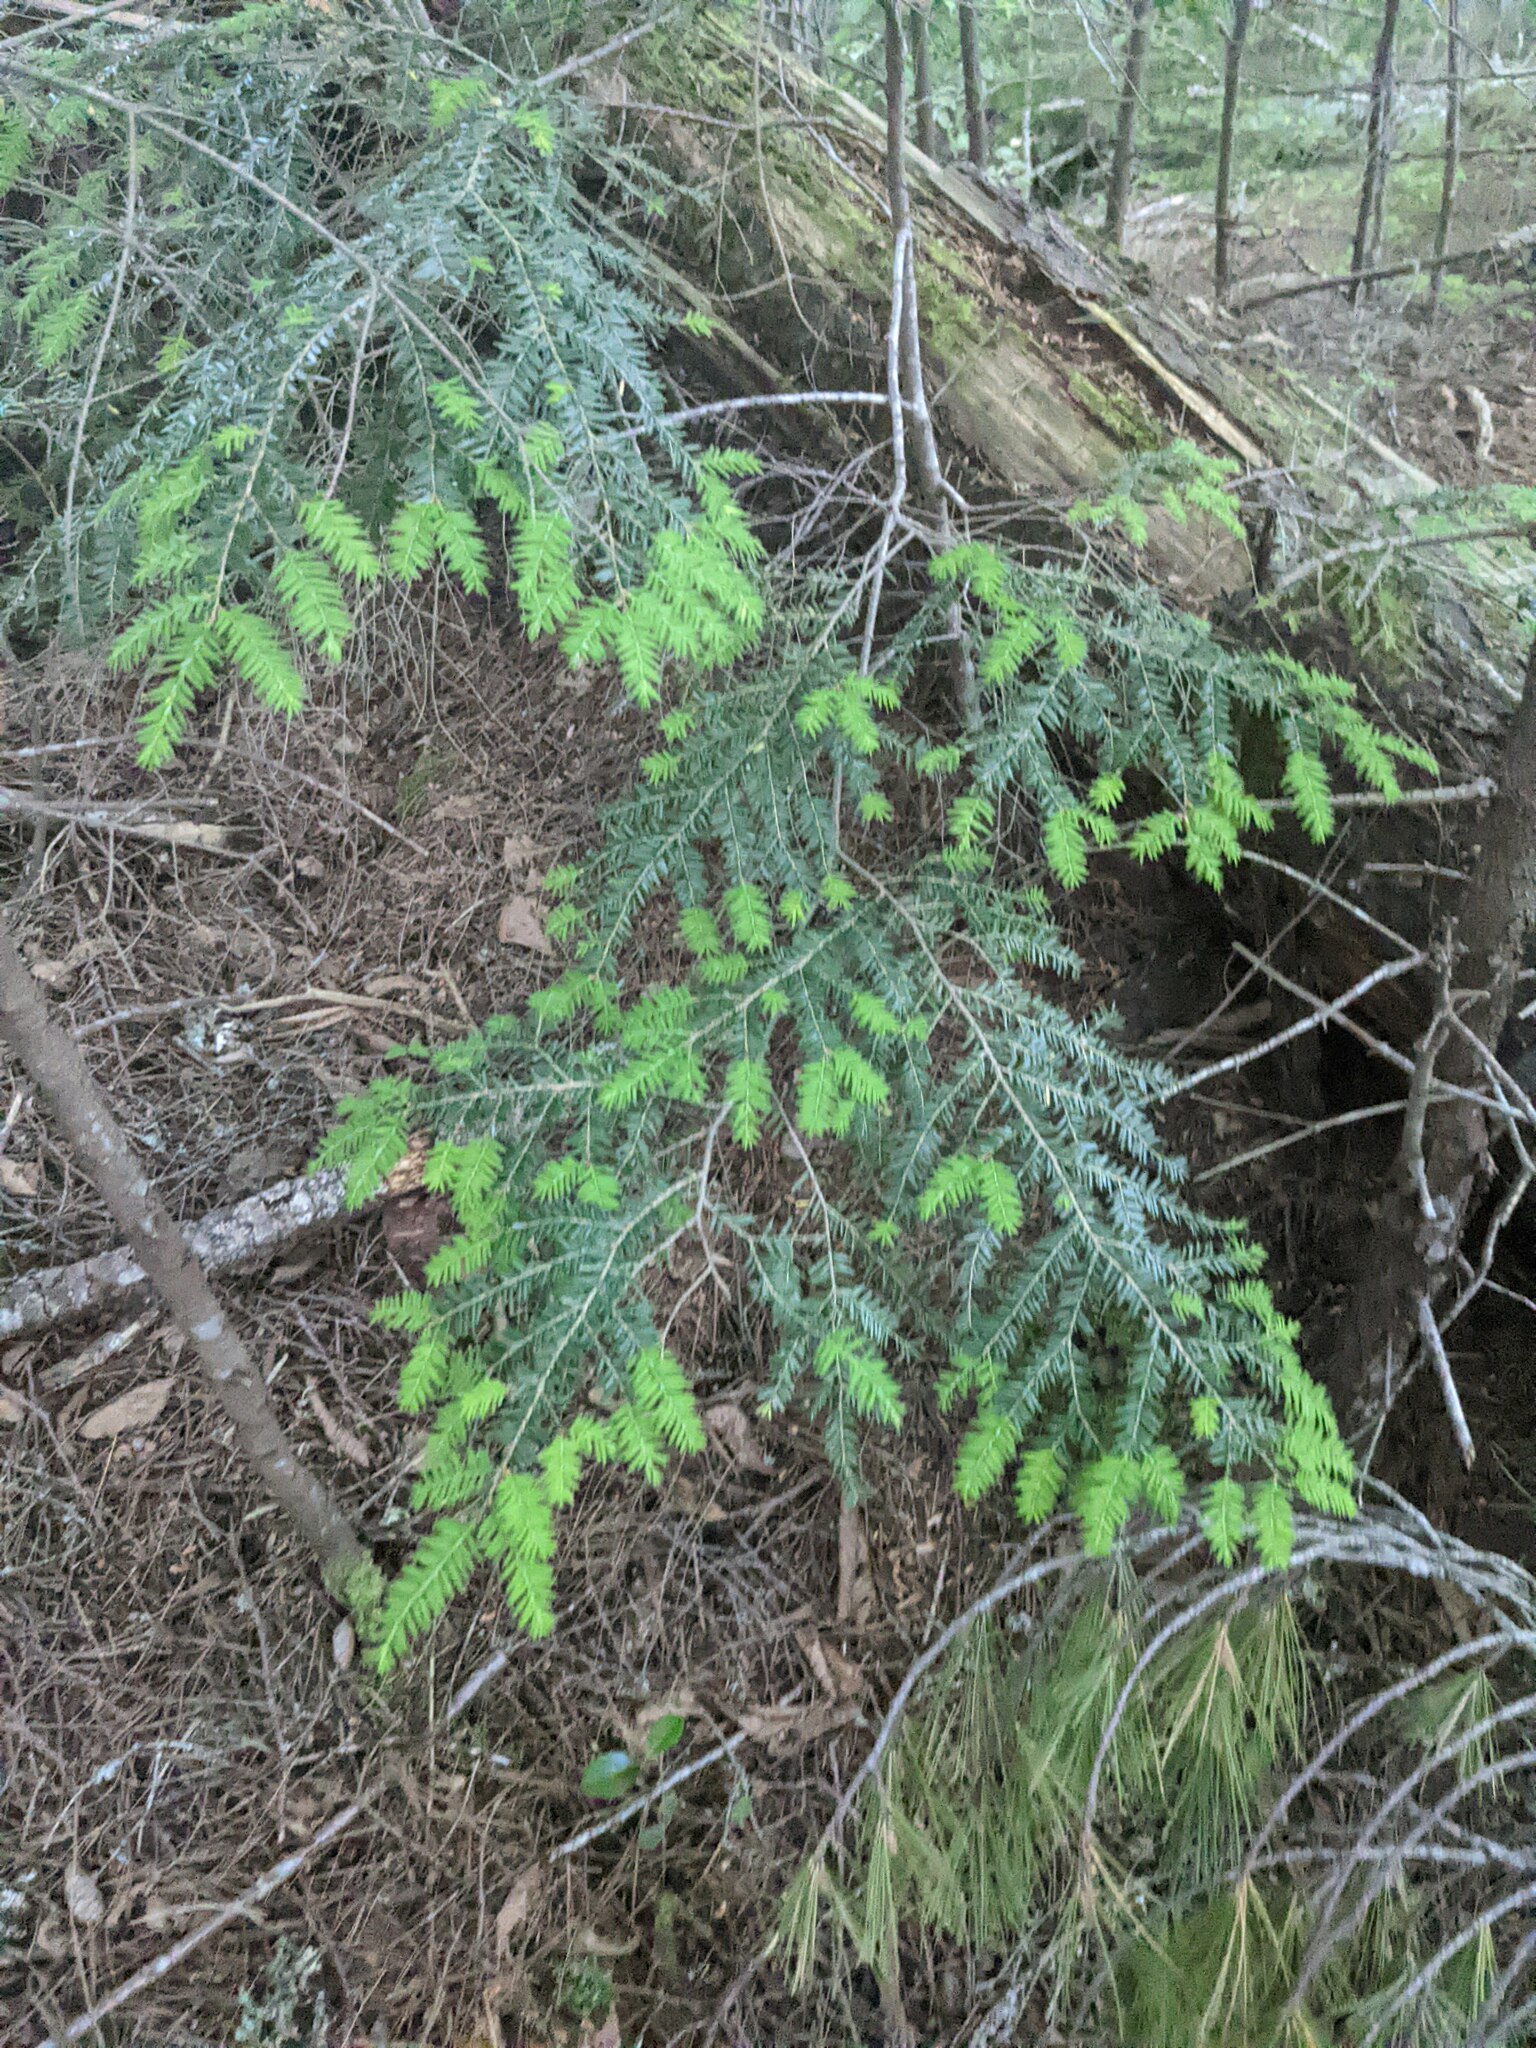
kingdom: Plantae
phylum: Tracheophyta
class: Pinopsida
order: Pinales
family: Pinaceae
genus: Tsuga
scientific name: Tsuga canadensis
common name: Eastern hemlock
